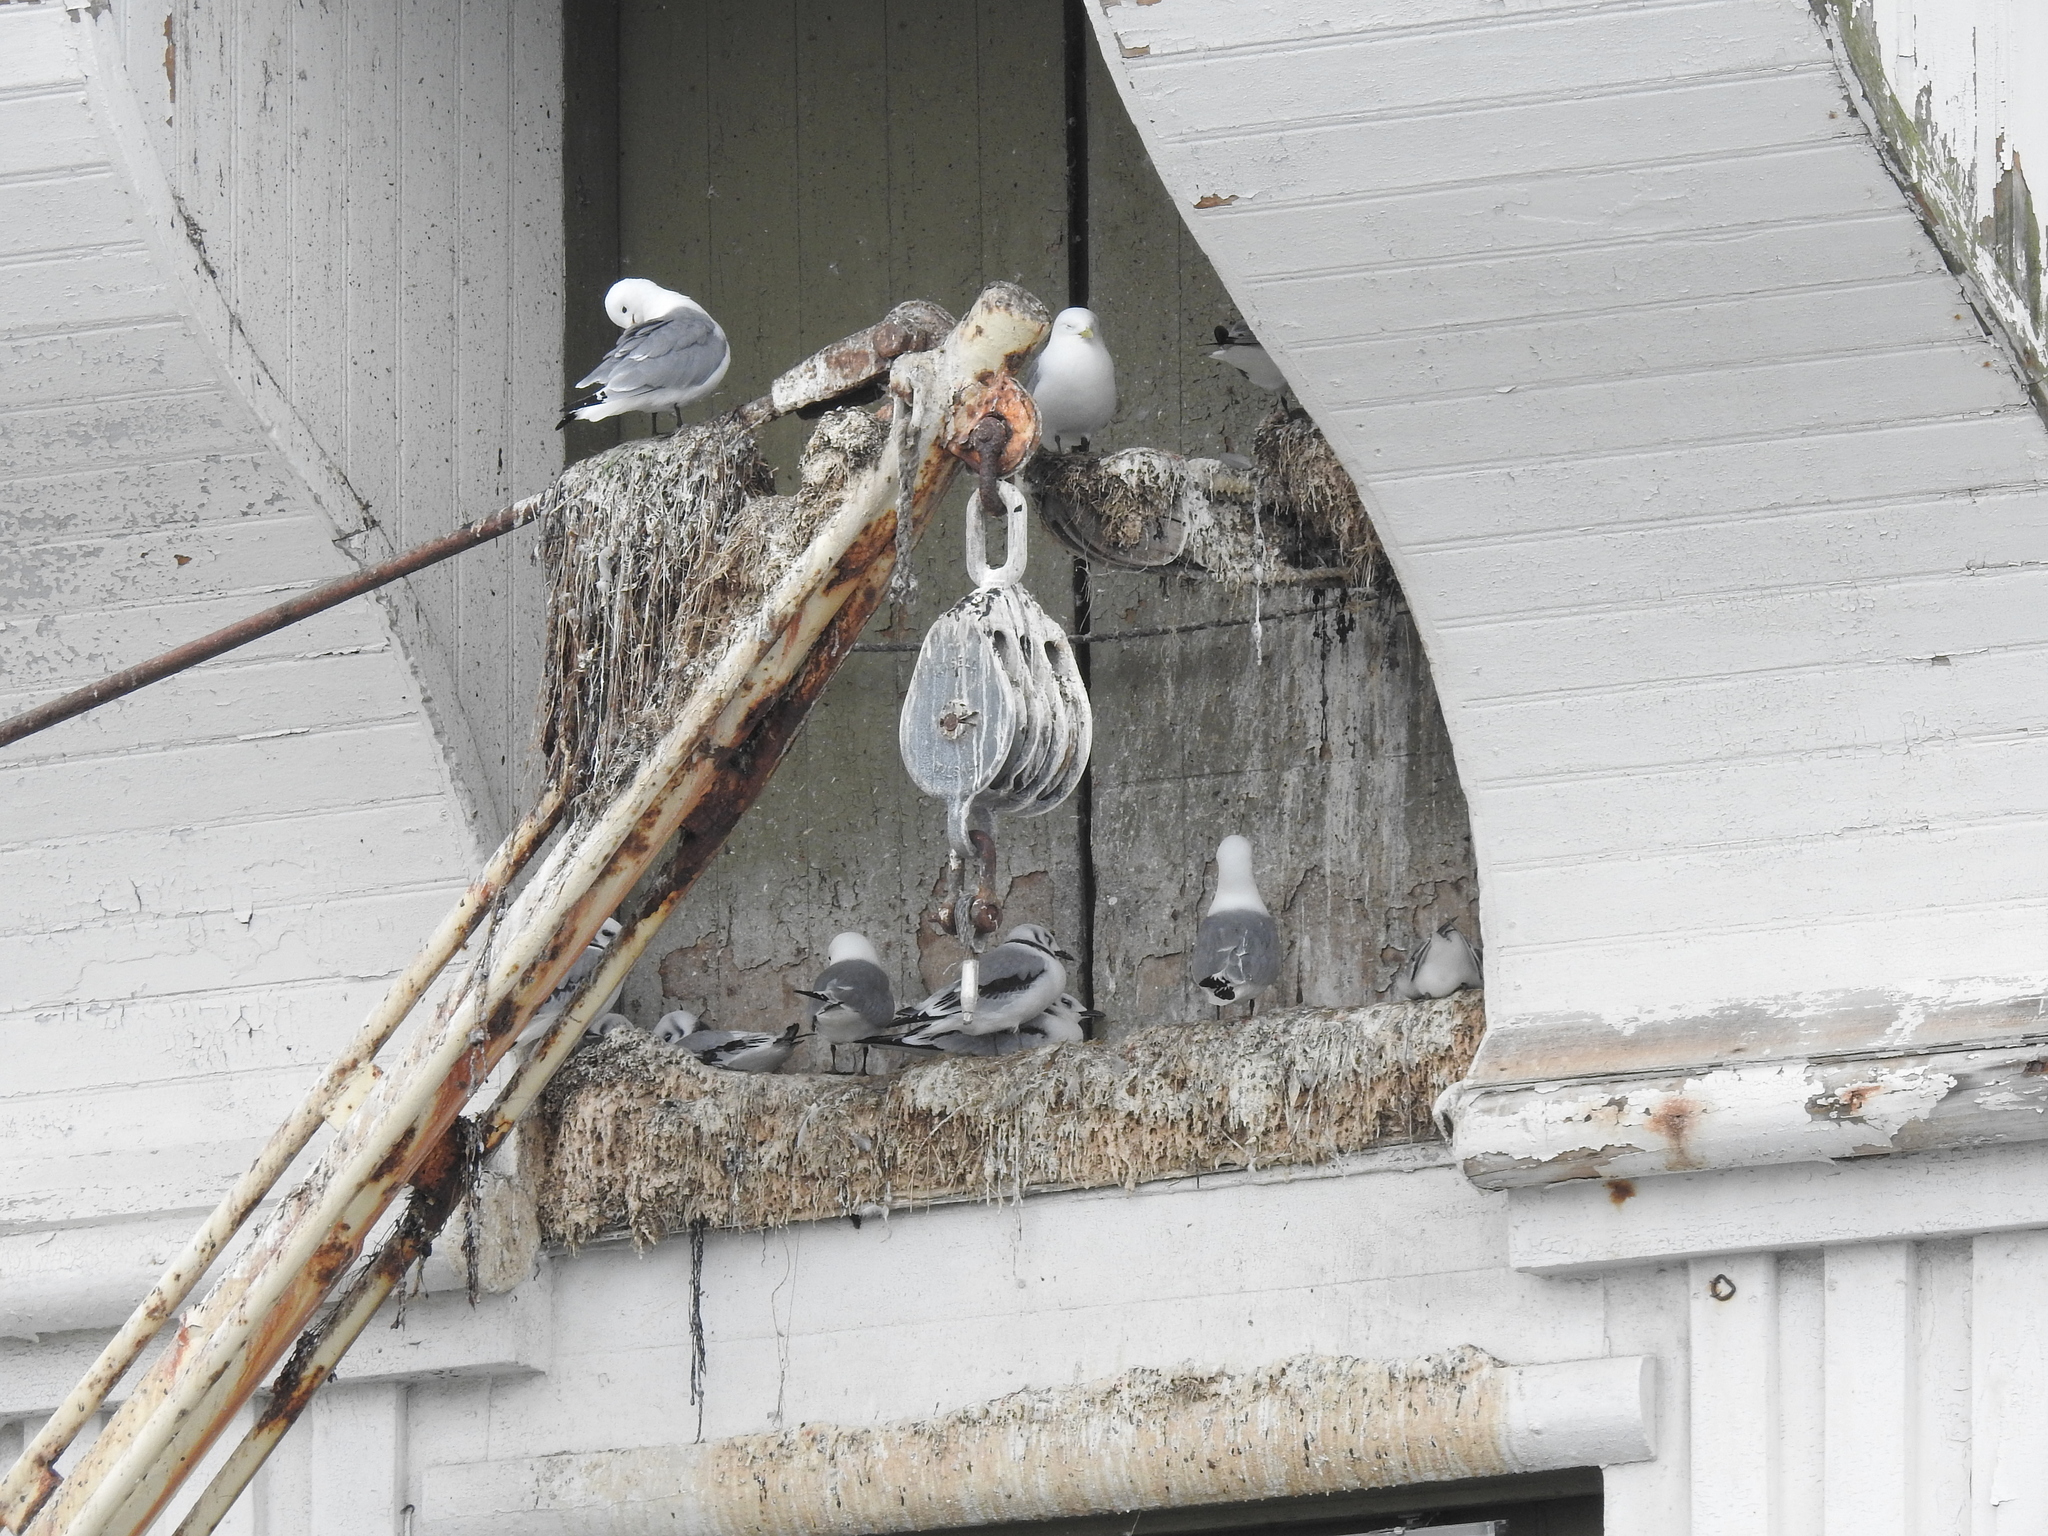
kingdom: Animalia
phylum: Chordata
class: Aves
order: Charadriiformes
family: Laridae
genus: Rissa
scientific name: Rissa tridactyla
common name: Black-legged kittiwake
